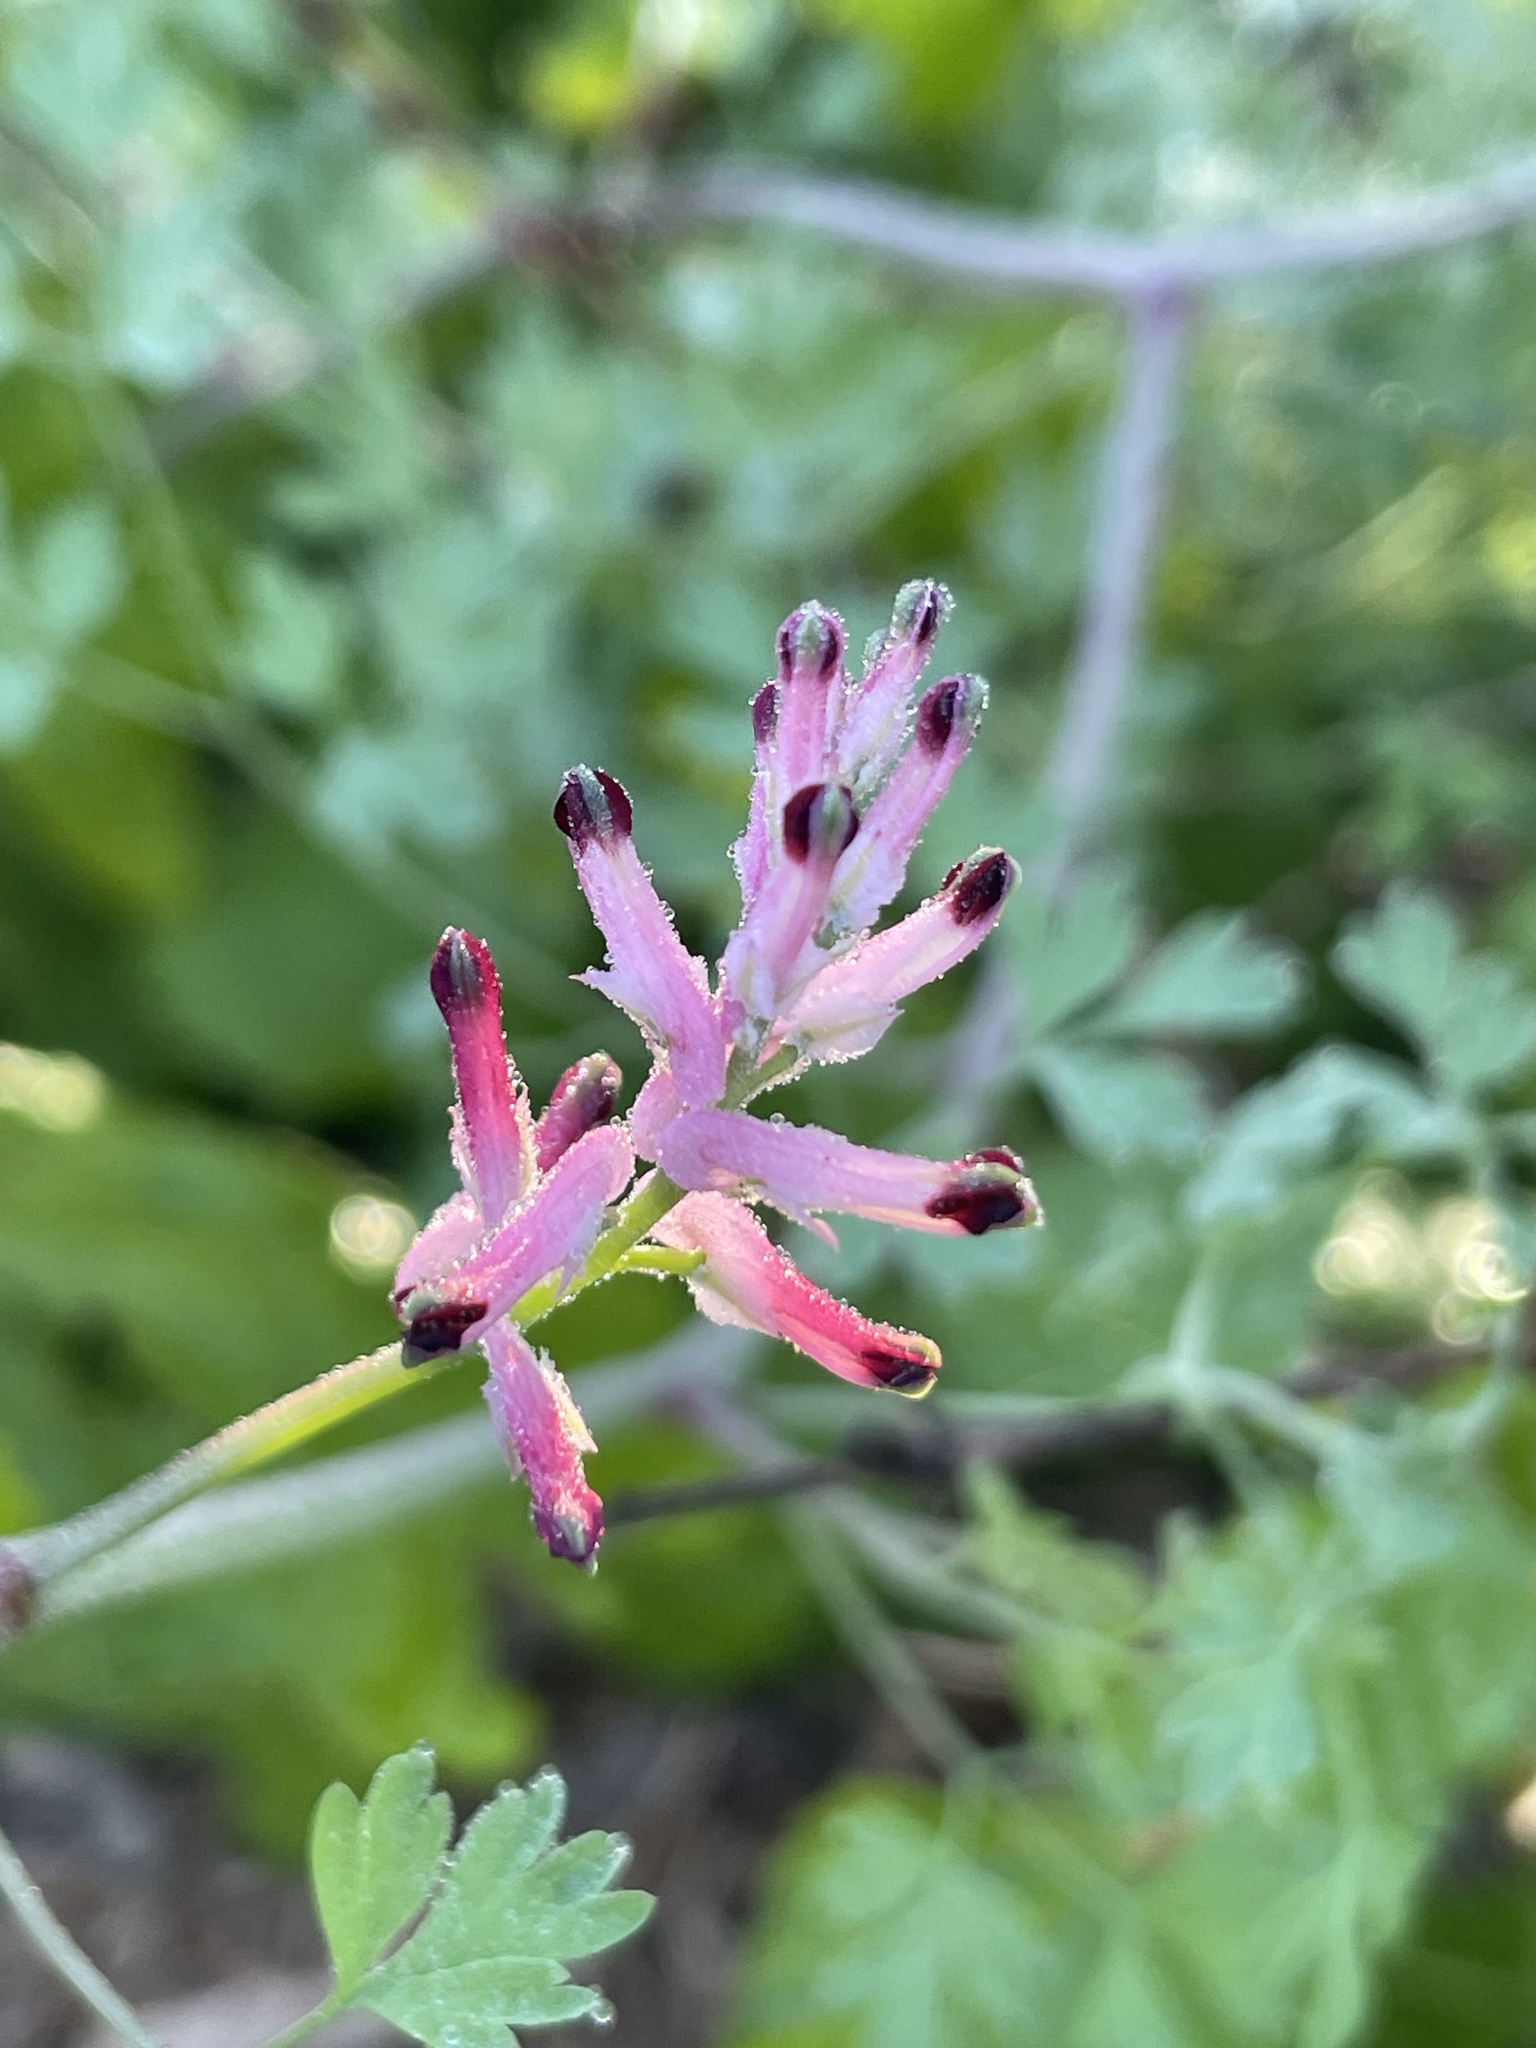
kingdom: Plantae
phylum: Tracheophyta
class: Magnoliopsida
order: Ranunculales
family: Papaveraceae
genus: Fumaria
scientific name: Fumaria muralis
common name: Common ramping-fumitory
